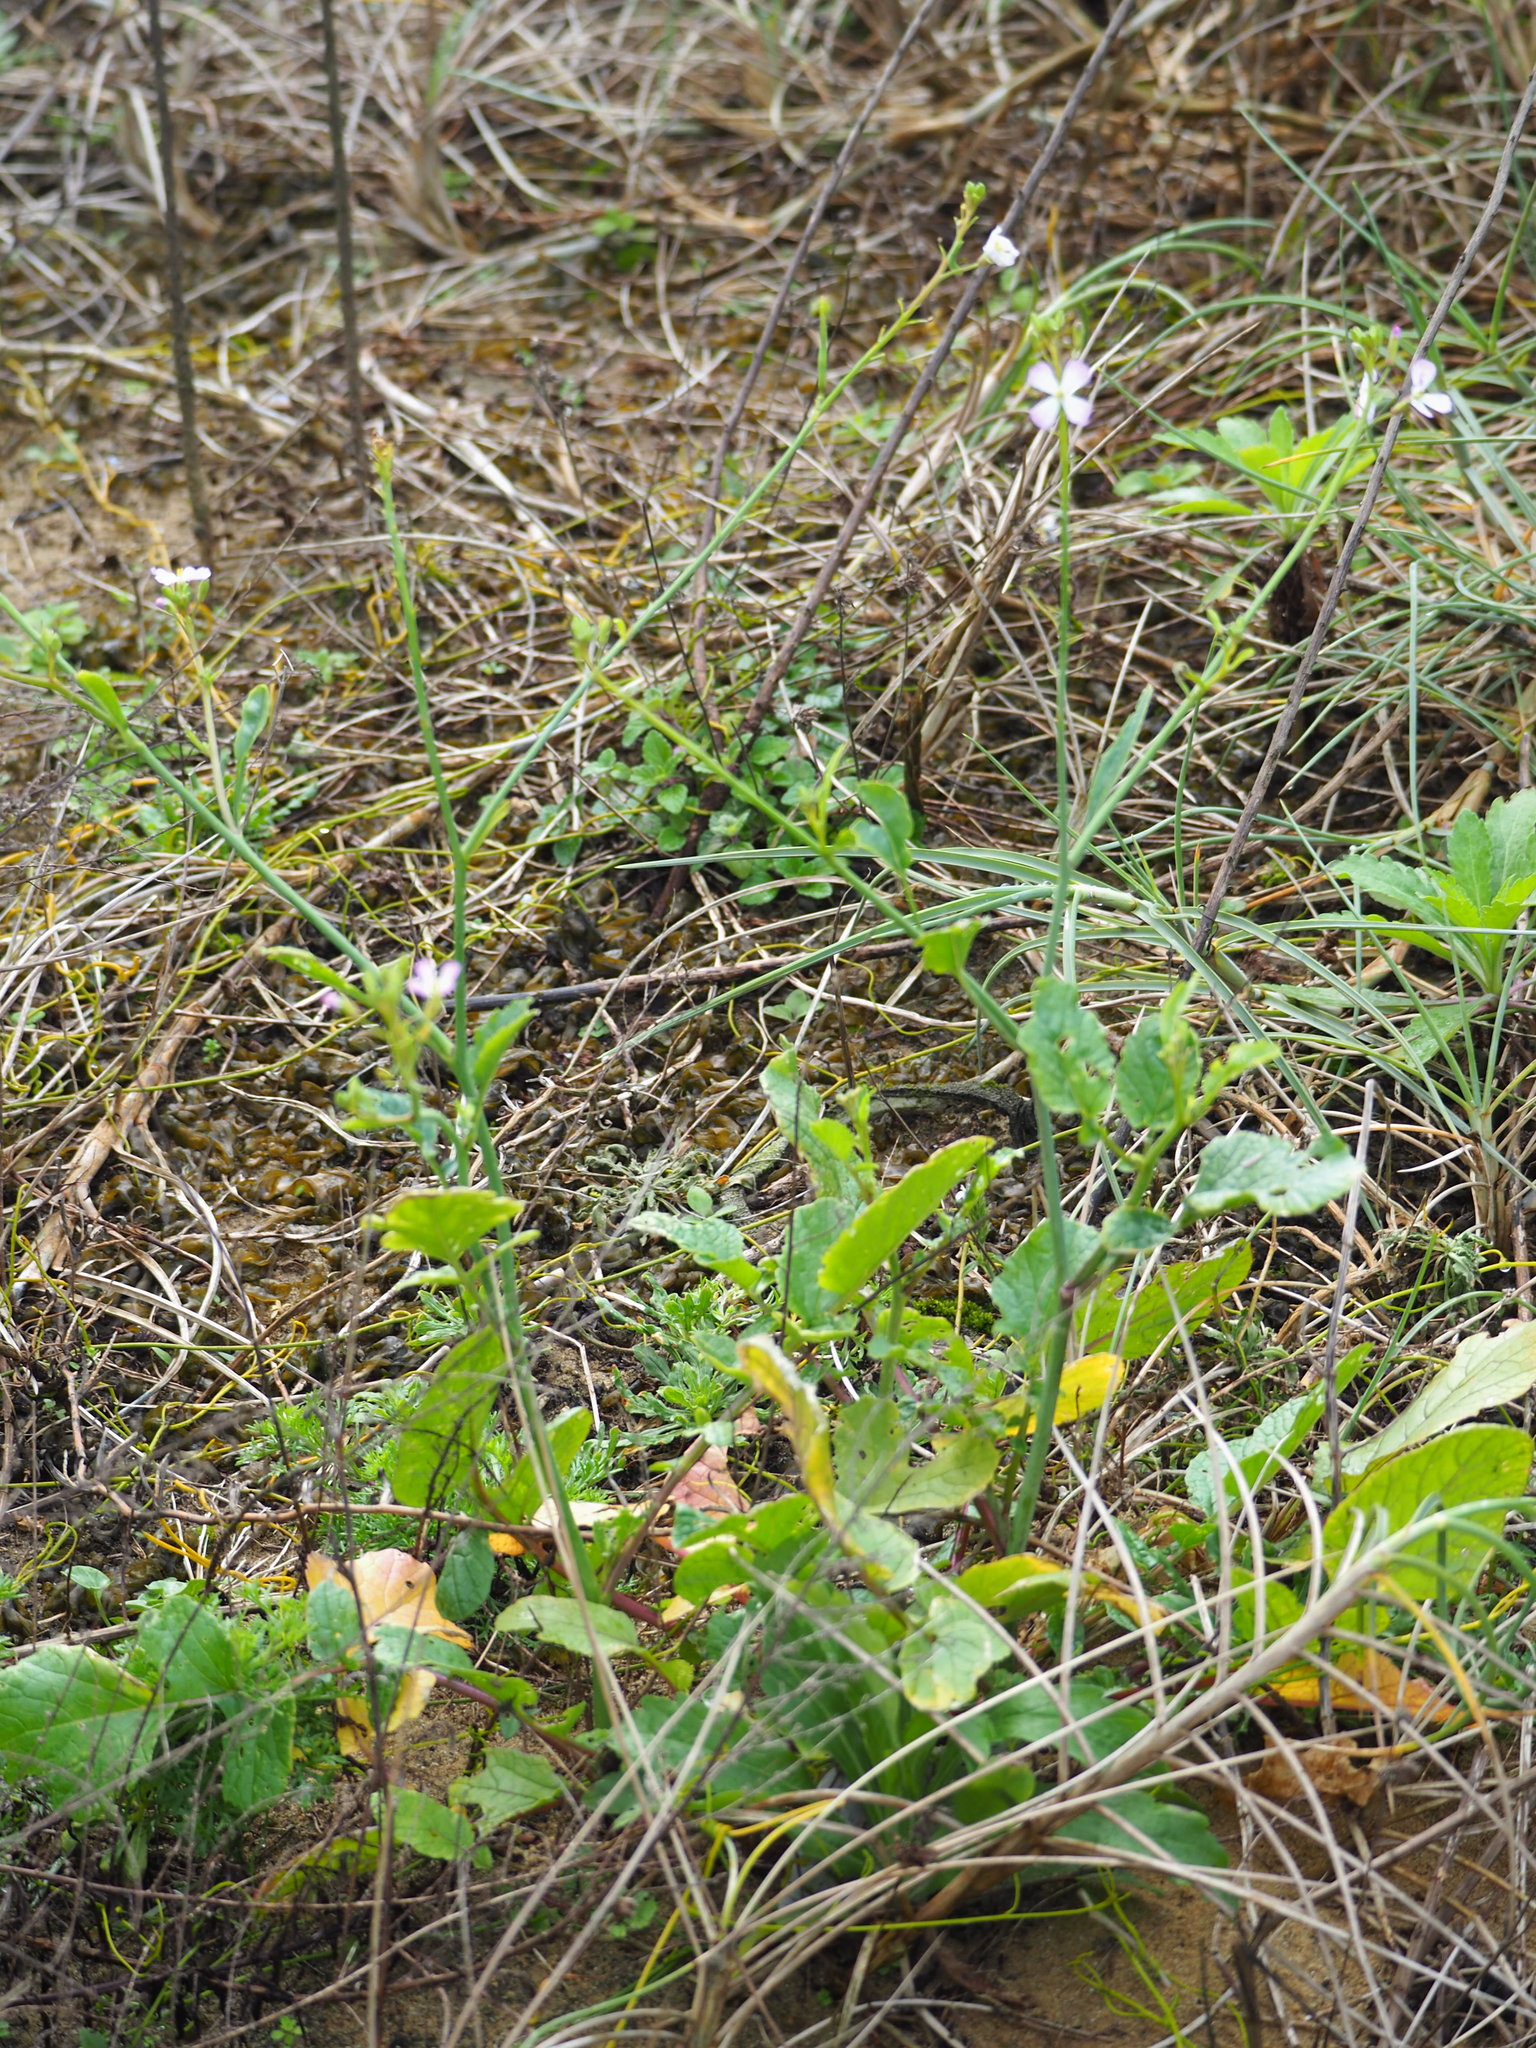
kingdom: Plantae
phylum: Tracheophyta
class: Magnoliopsida
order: Brassicales
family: Brassicaceae
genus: Raphanus
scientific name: Raphanus sativus
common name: Cultivated radish
